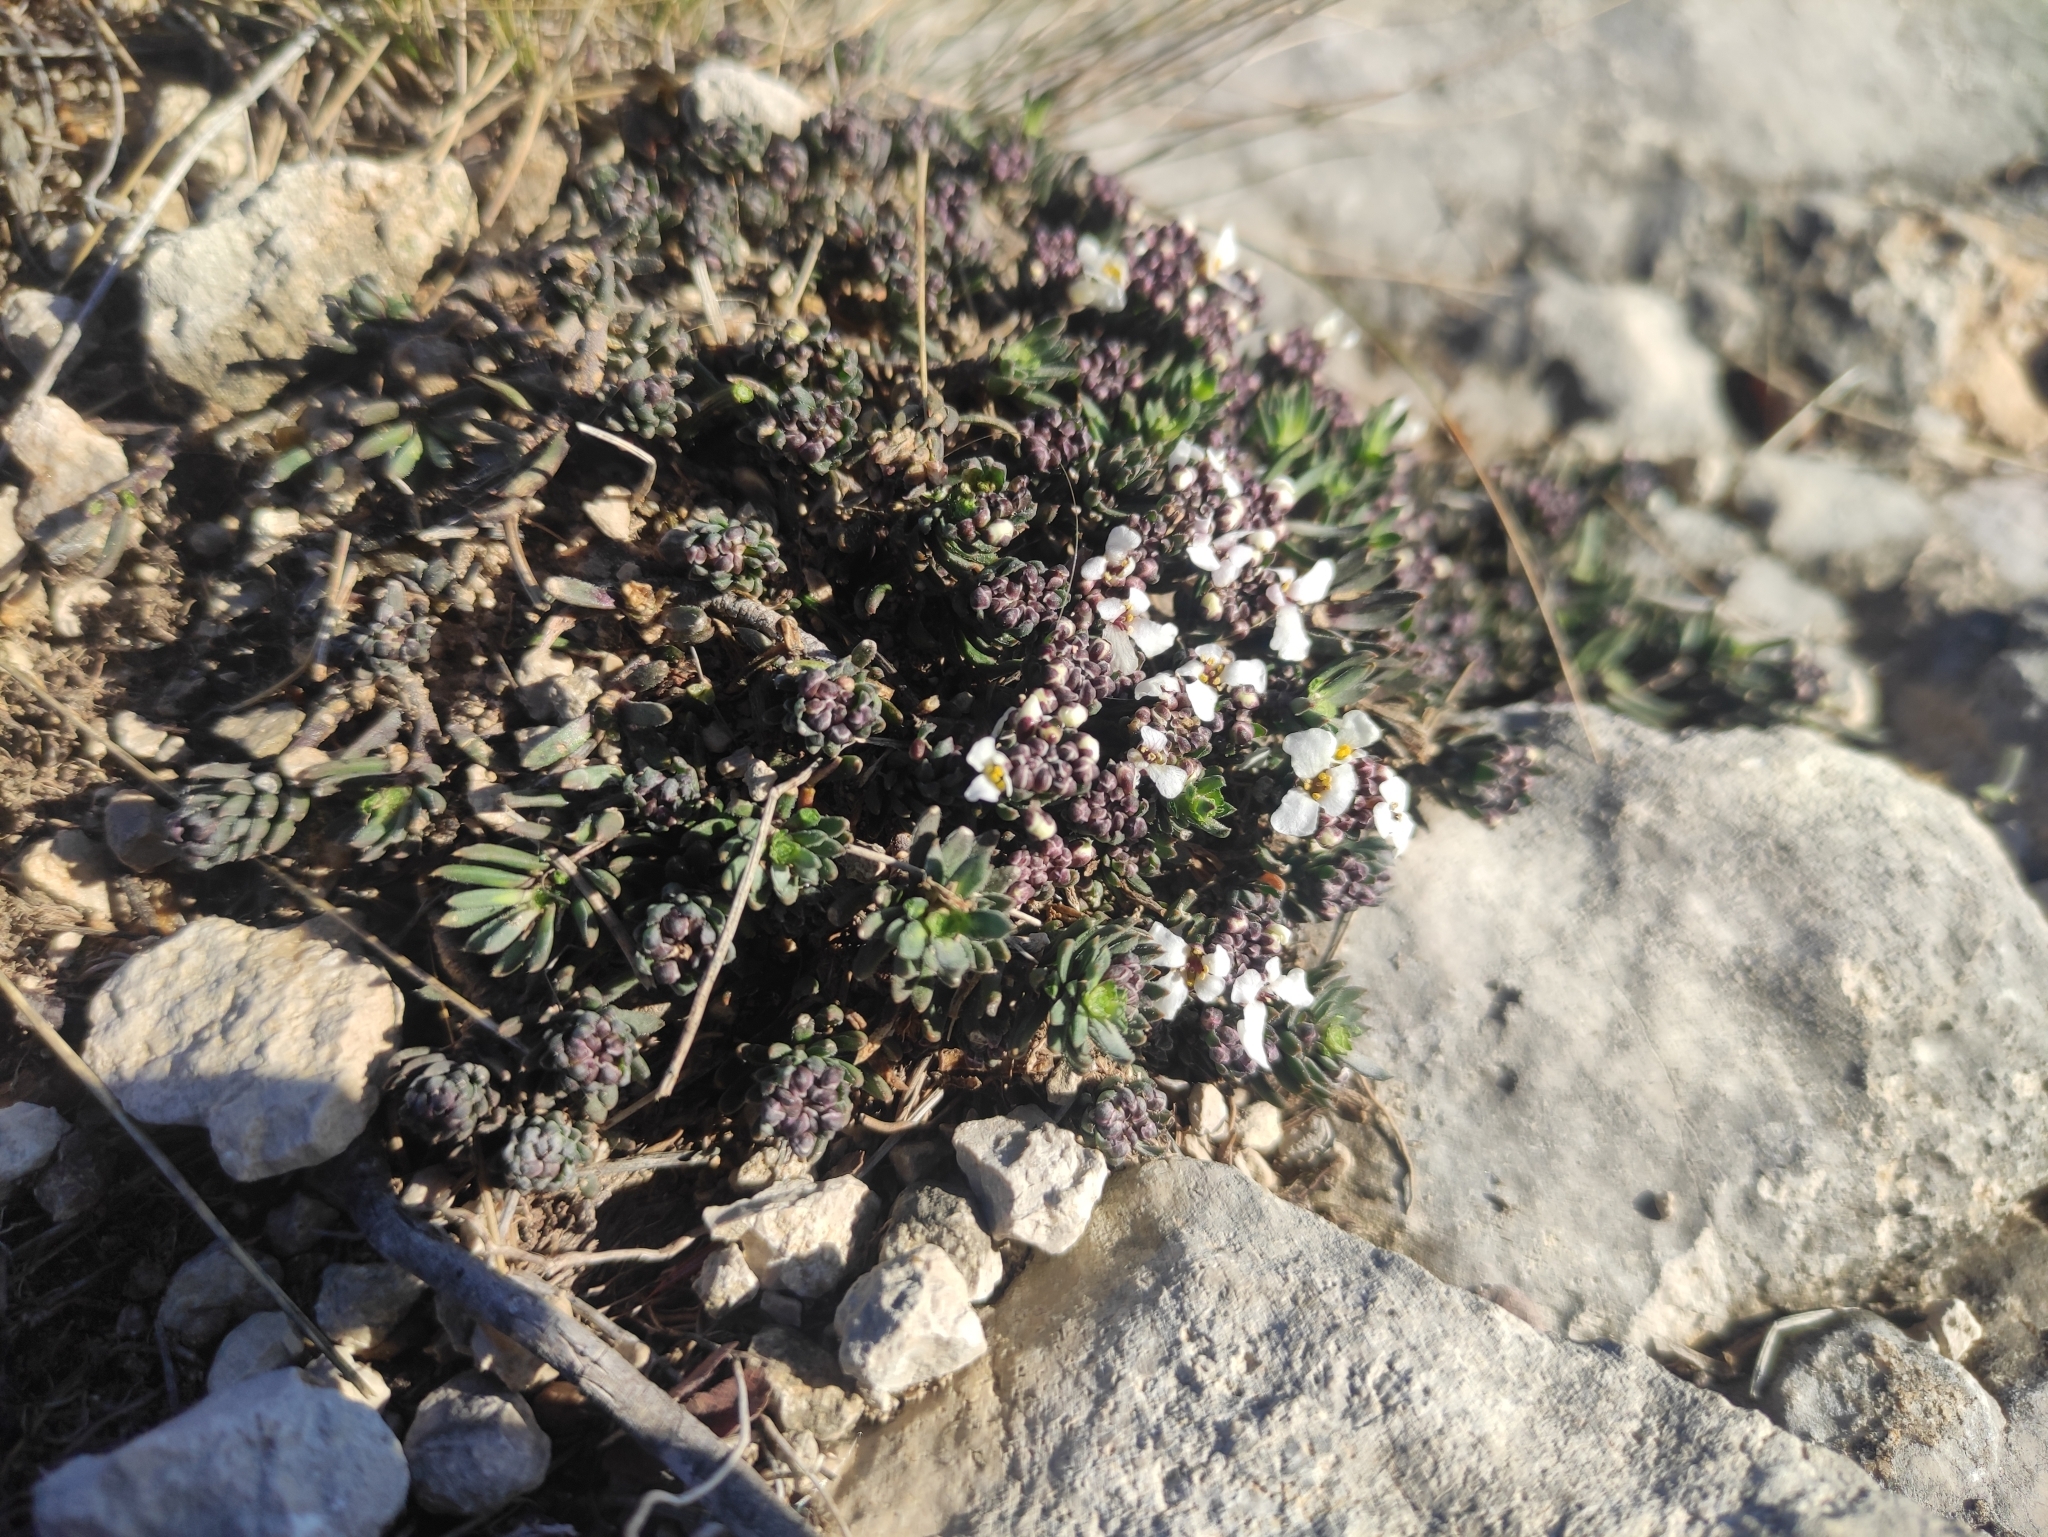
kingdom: Plantae
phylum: Tracheophyta
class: Magnoliopsida
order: Brassicales
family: Brassicaceae
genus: Iberis
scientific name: Iberis saxatilis
